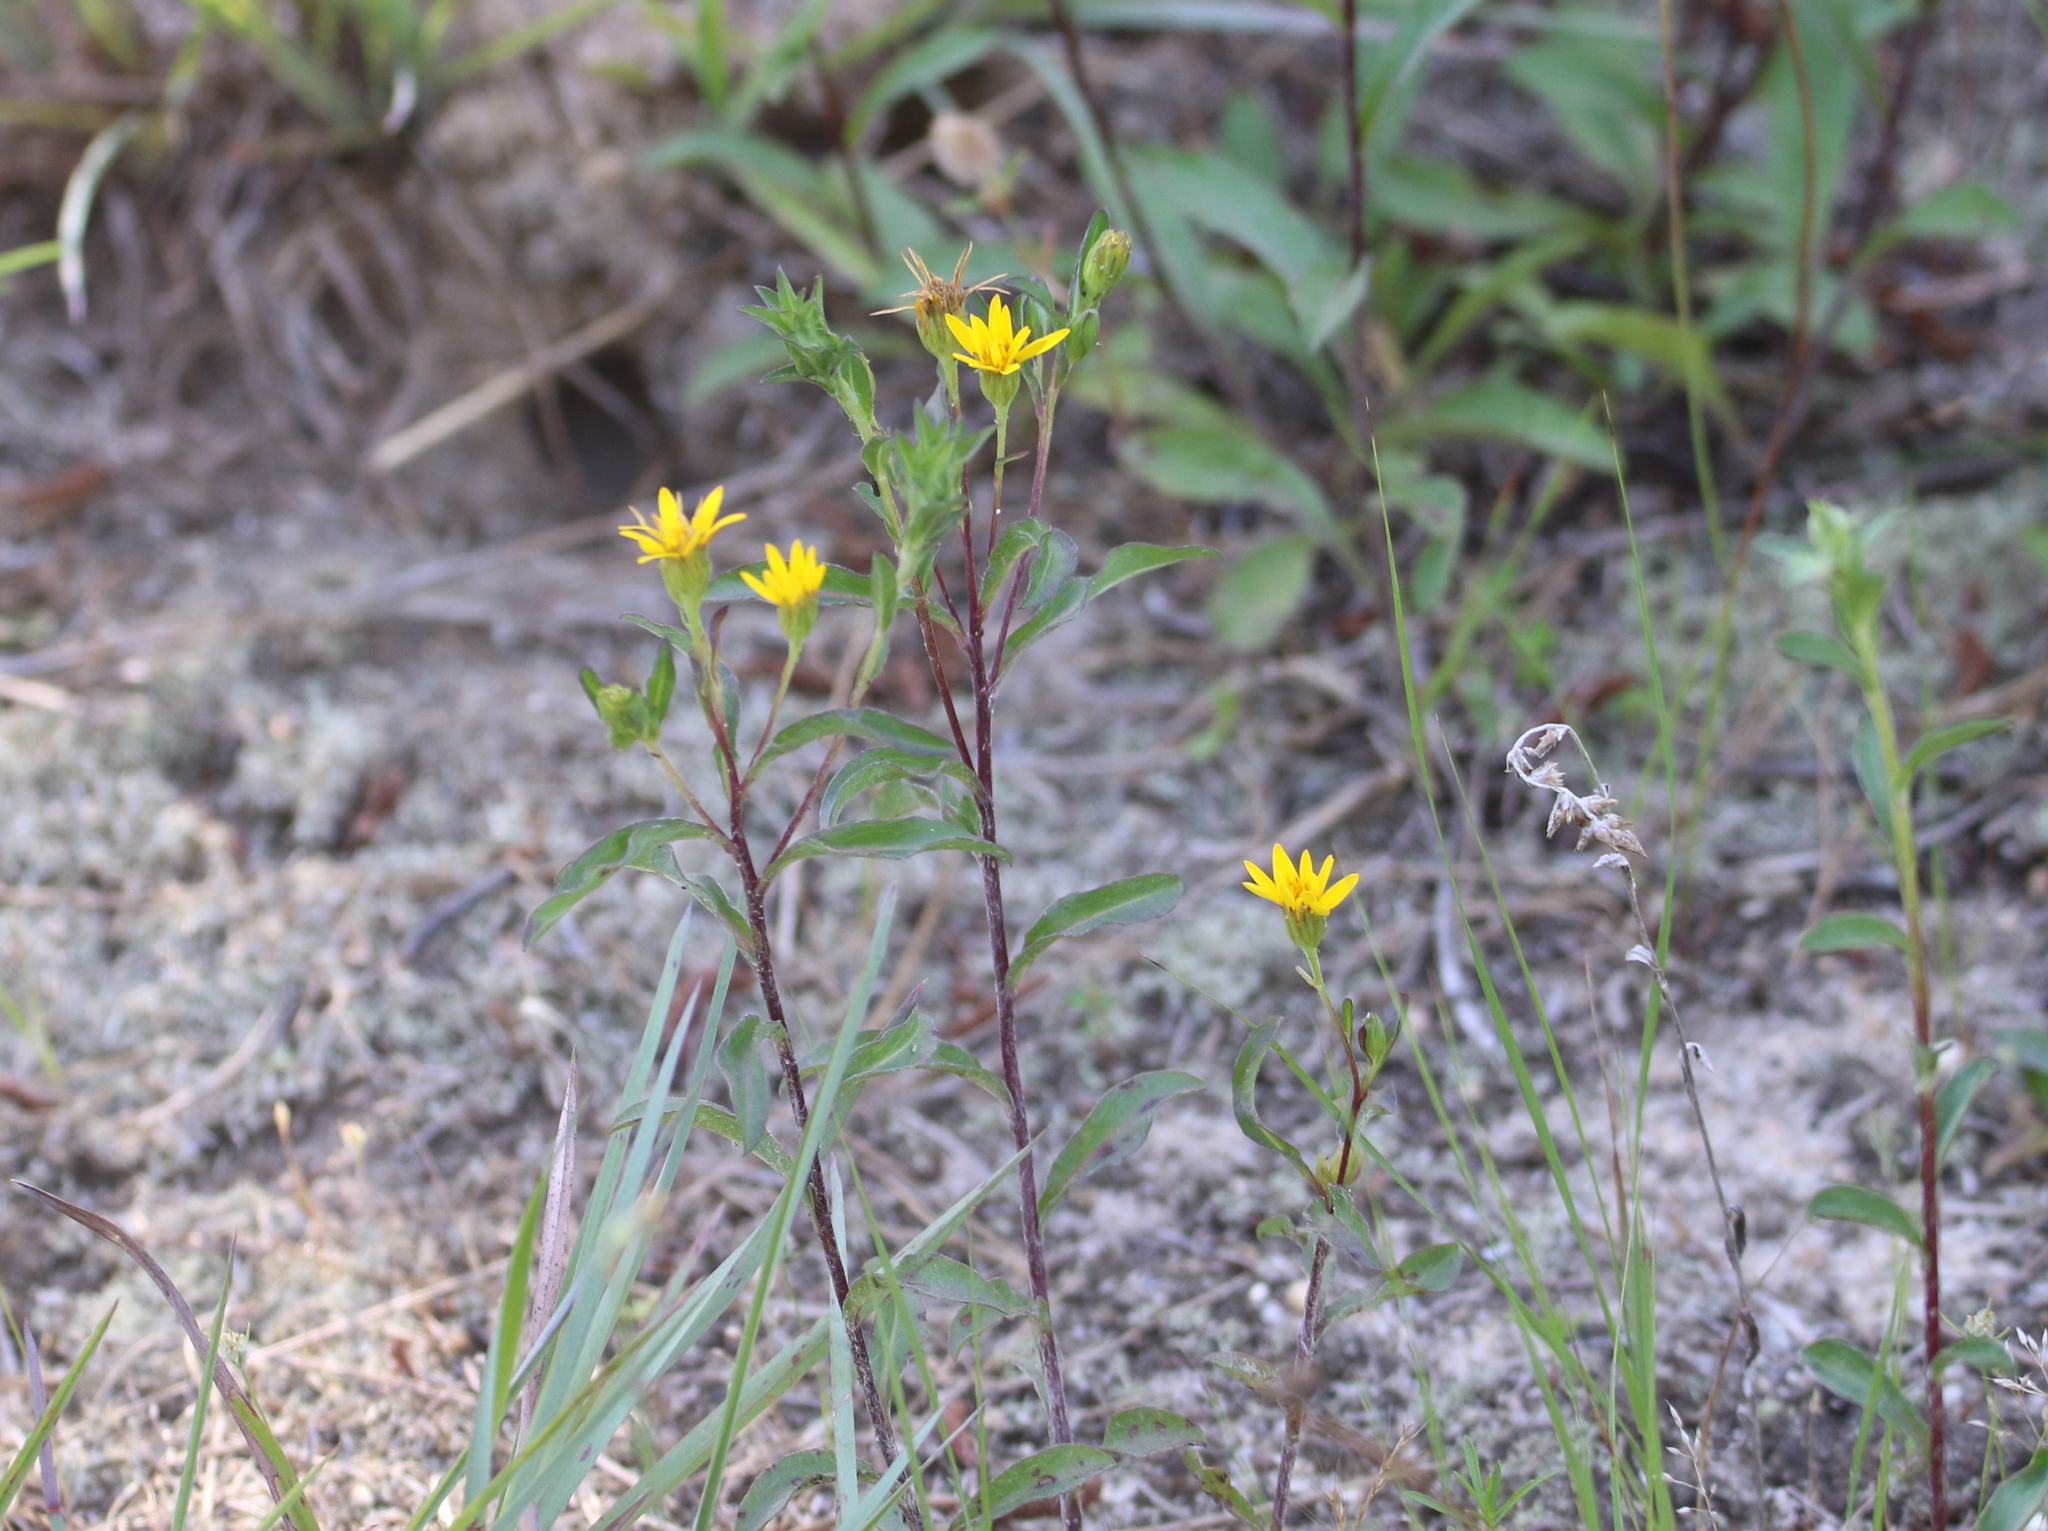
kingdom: Plantae
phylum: Tracheophyta
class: Magnoliopsida
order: Asterales
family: Asteraceae
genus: Chrysopsis
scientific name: Chrysopsis mariana
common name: Maryland golden-aster
